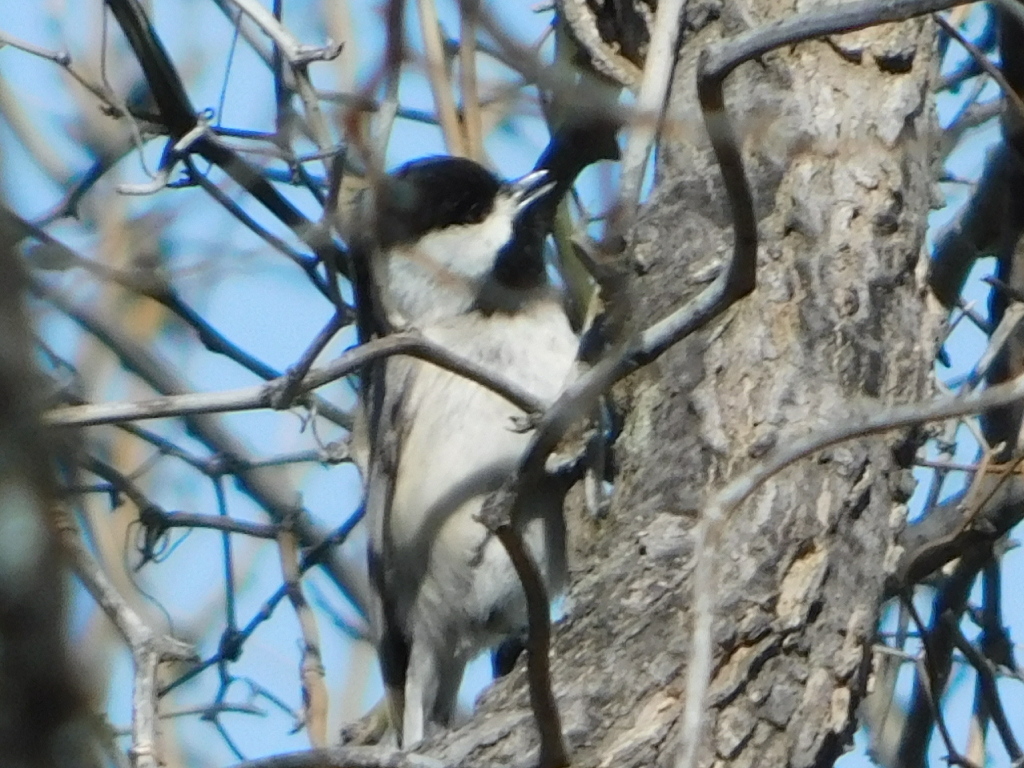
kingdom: Animalia
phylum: Chordata
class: Aves
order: Passeriformes
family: Paridae
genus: Poecile
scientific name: Poecile carolinensis
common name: Carolina chickadee
